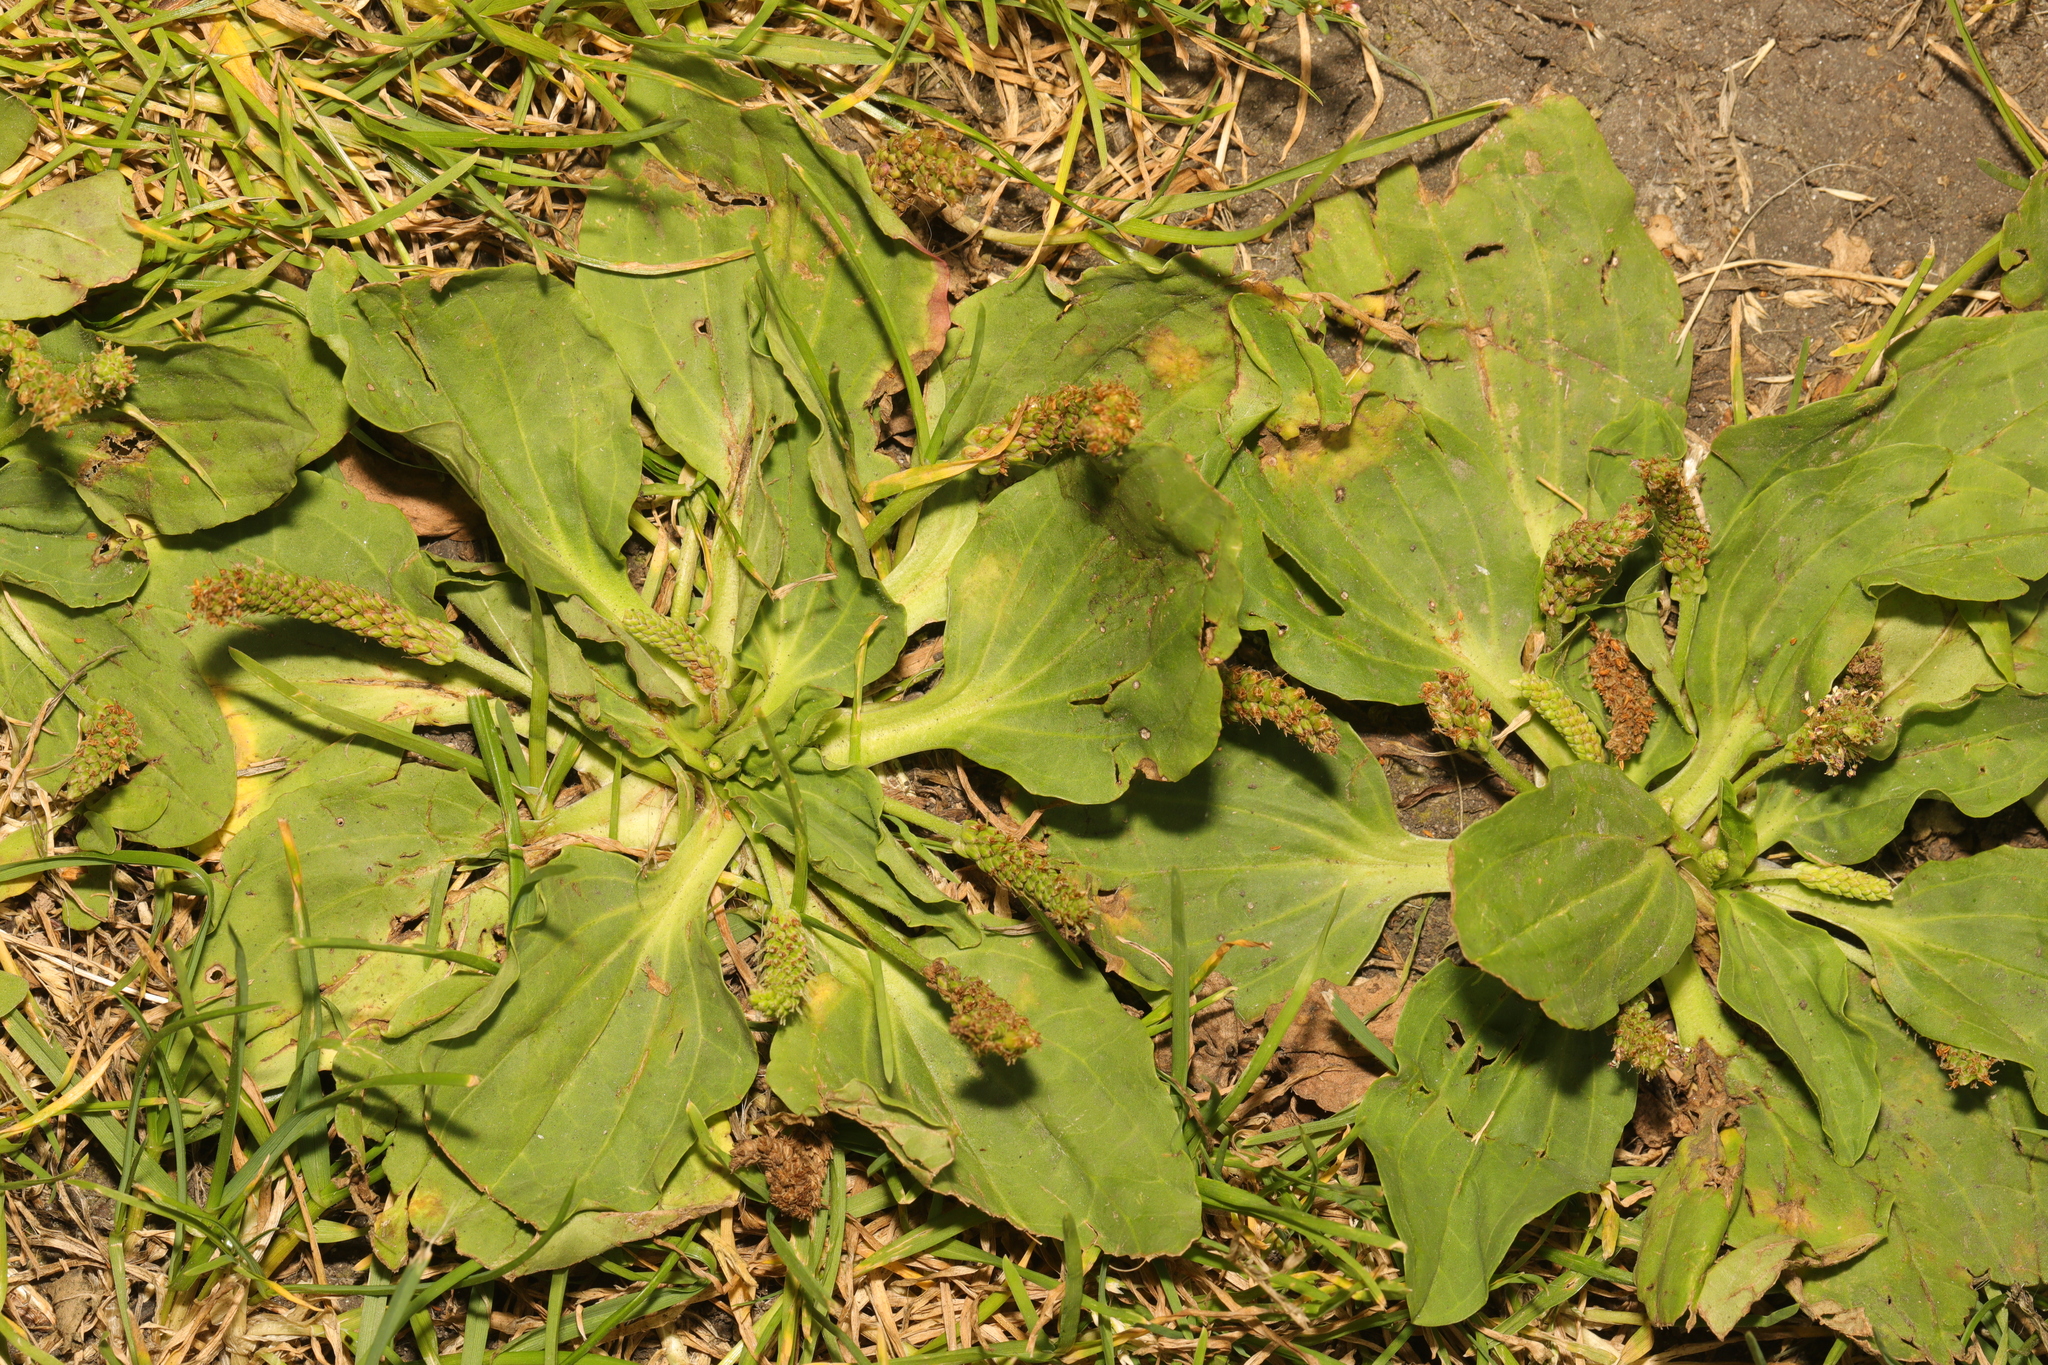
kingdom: Plantae
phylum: Tracheophyta
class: Magnoliopsida
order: Lamiales
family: Plantaginaceae
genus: Plantago
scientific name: Plantago major
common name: Common plantain
